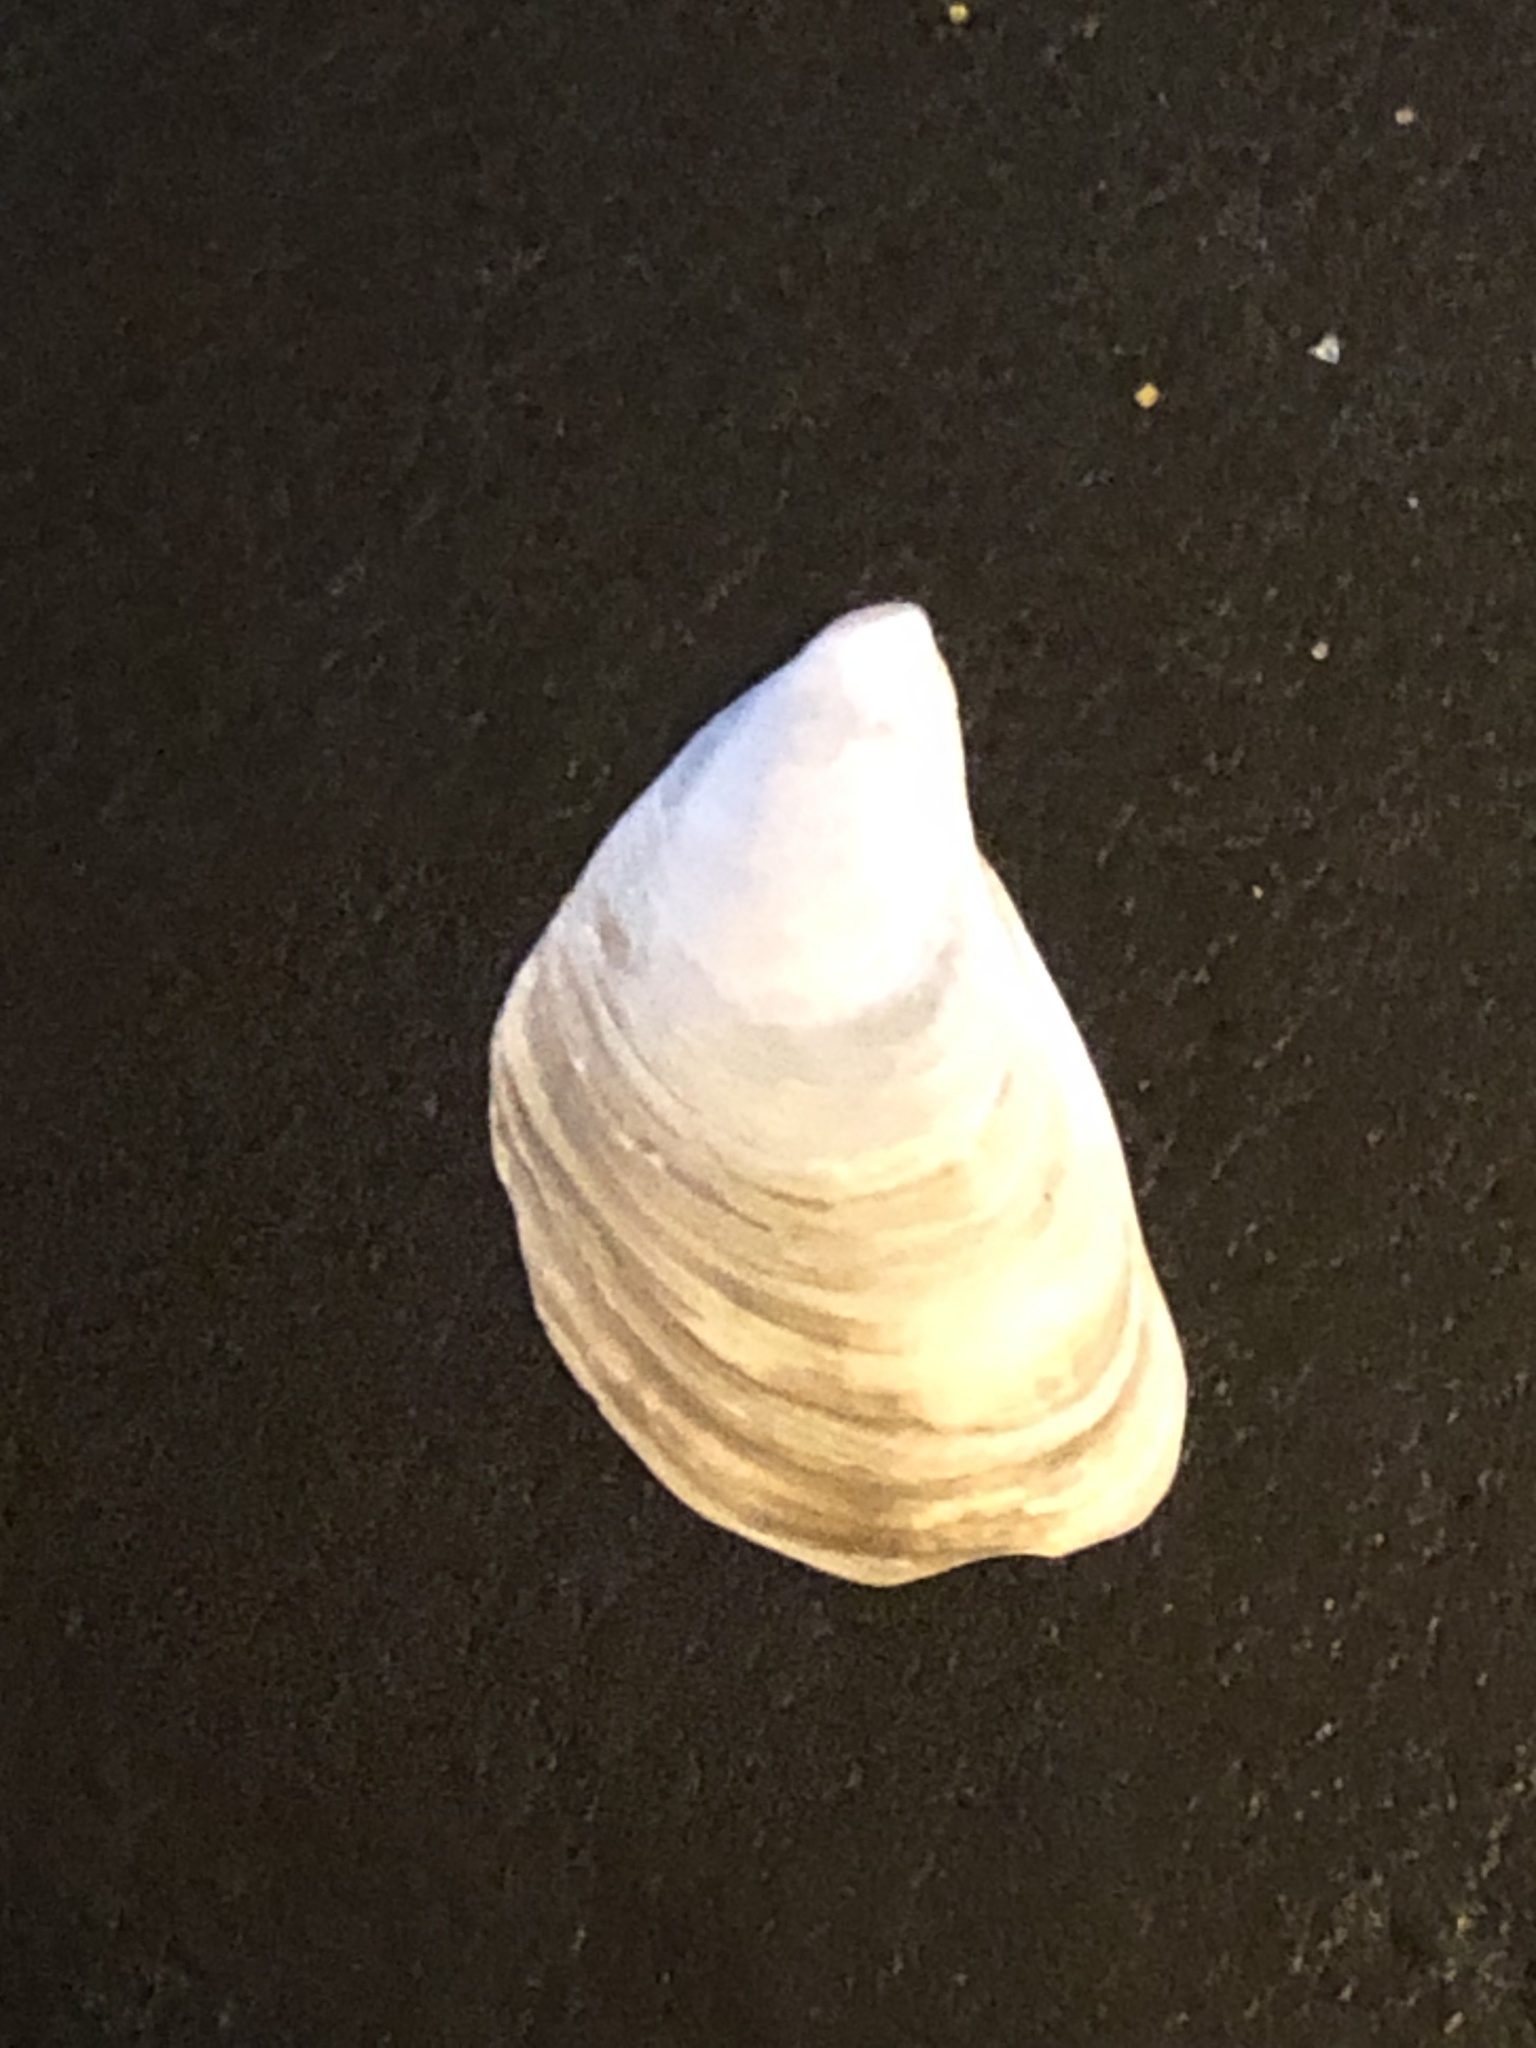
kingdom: Animalia
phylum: Mollusca
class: Bivalvia
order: Myida
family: Dreissenidae
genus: Dreissena
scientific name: Dreissena bugensis
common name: Quagga mussel
